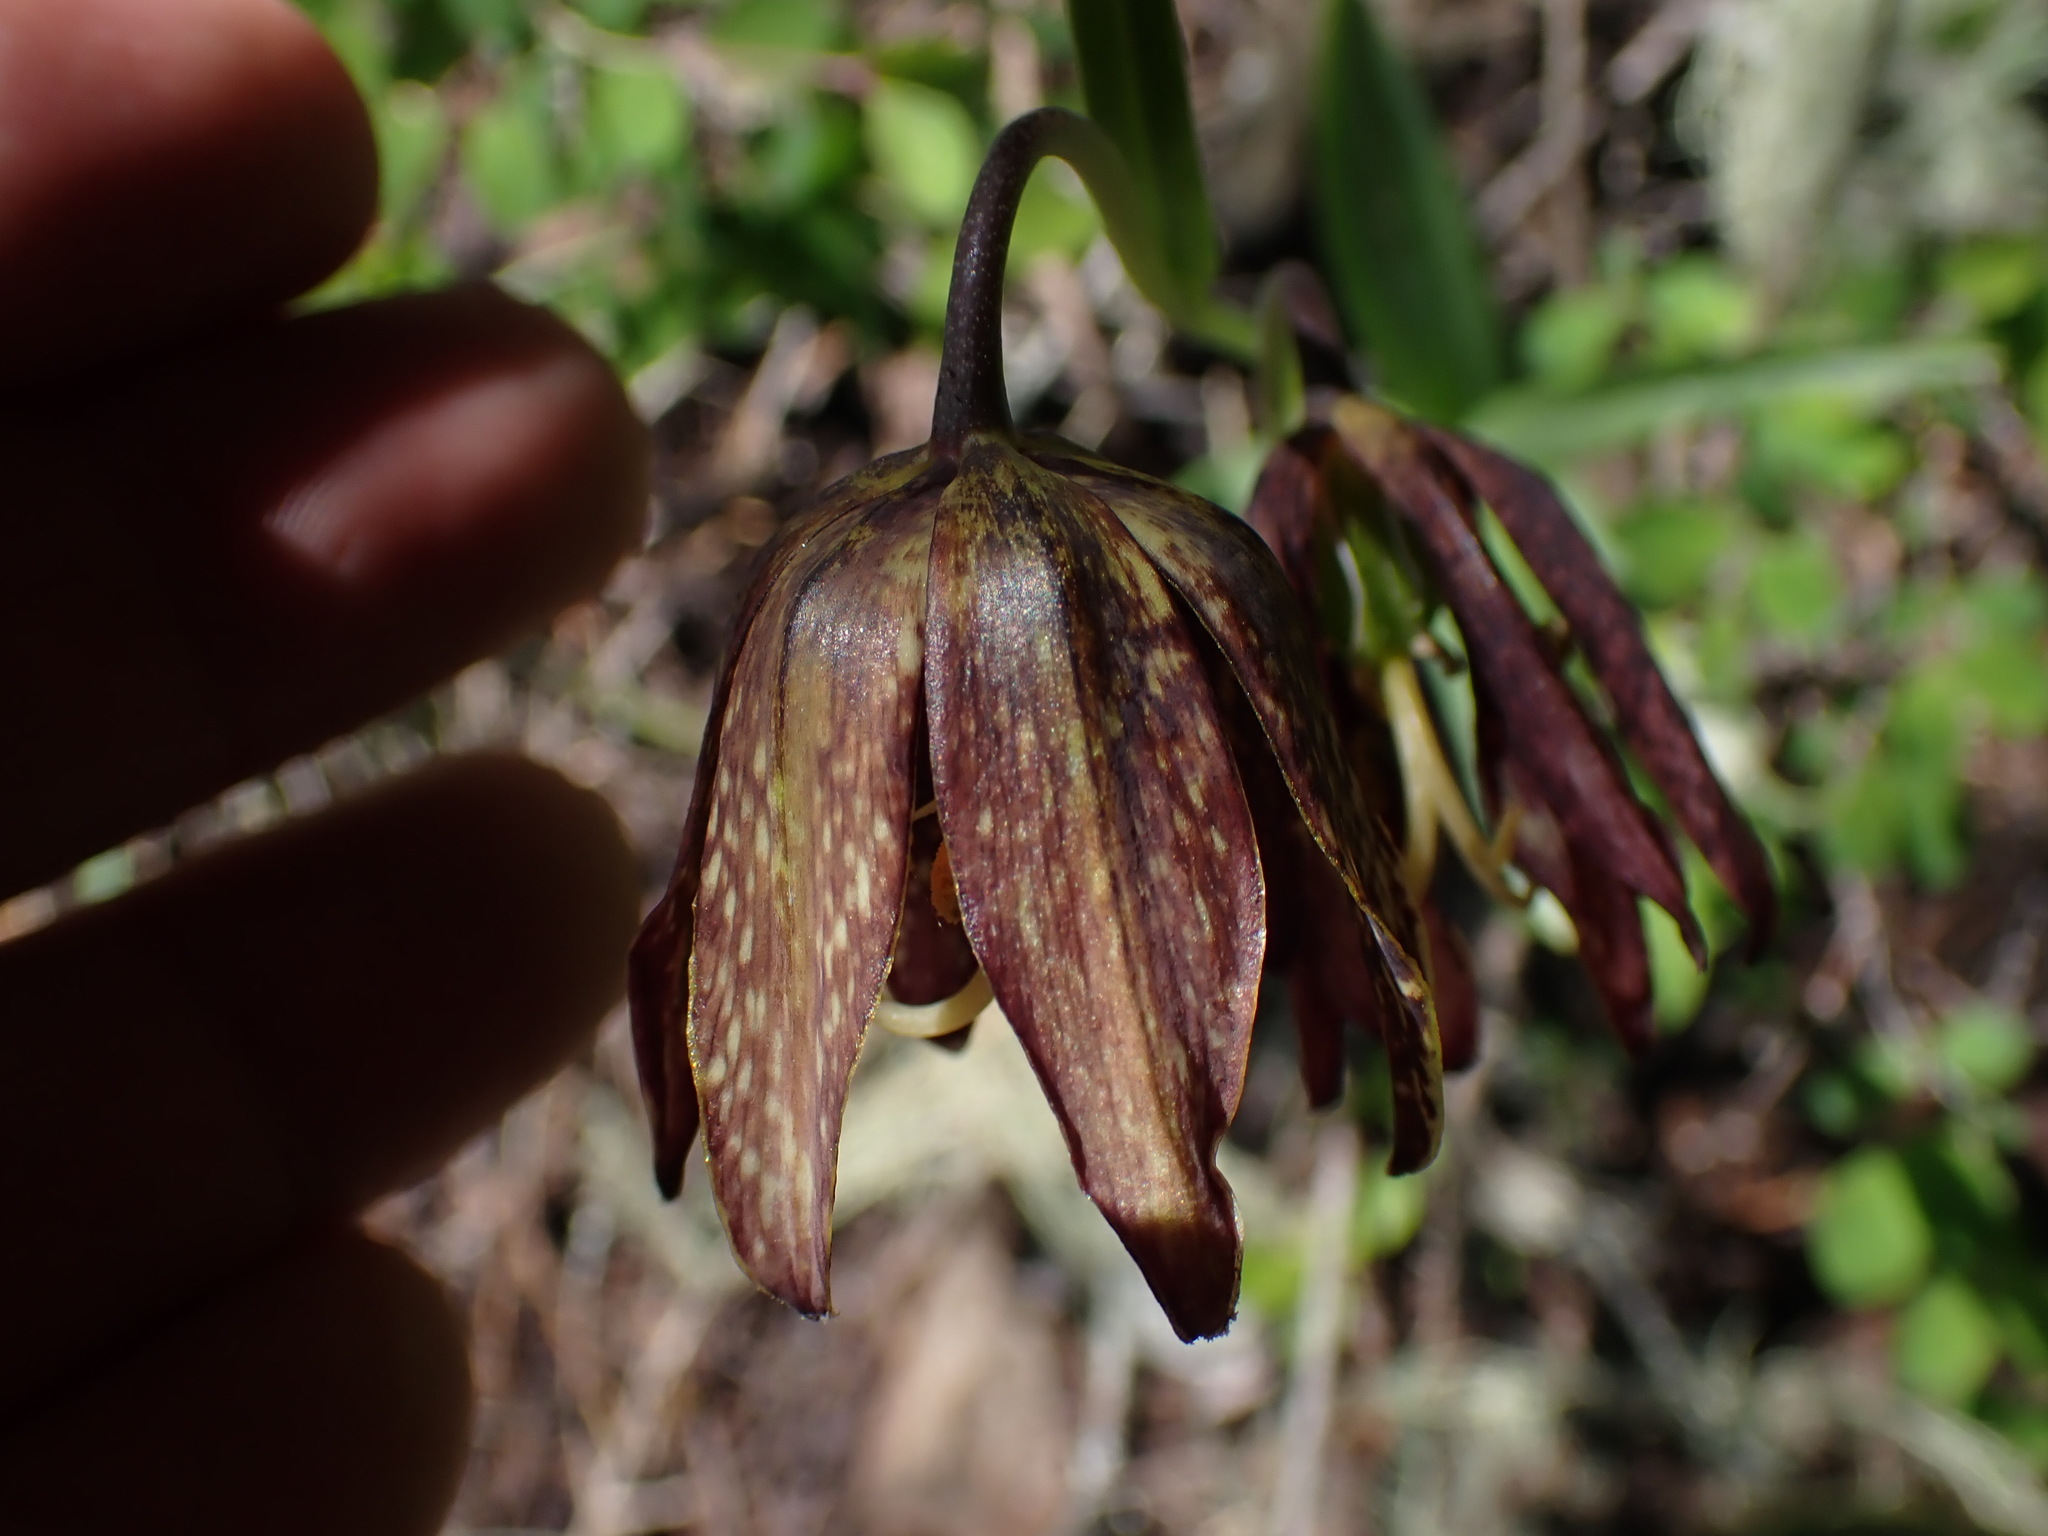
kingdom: Plantae
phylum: Tracheophyta
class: Liliopsida
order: Liliales
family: Liliaceae
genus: Fritillaria
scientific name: Fritillaria affinis
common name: Ojai fritillary
